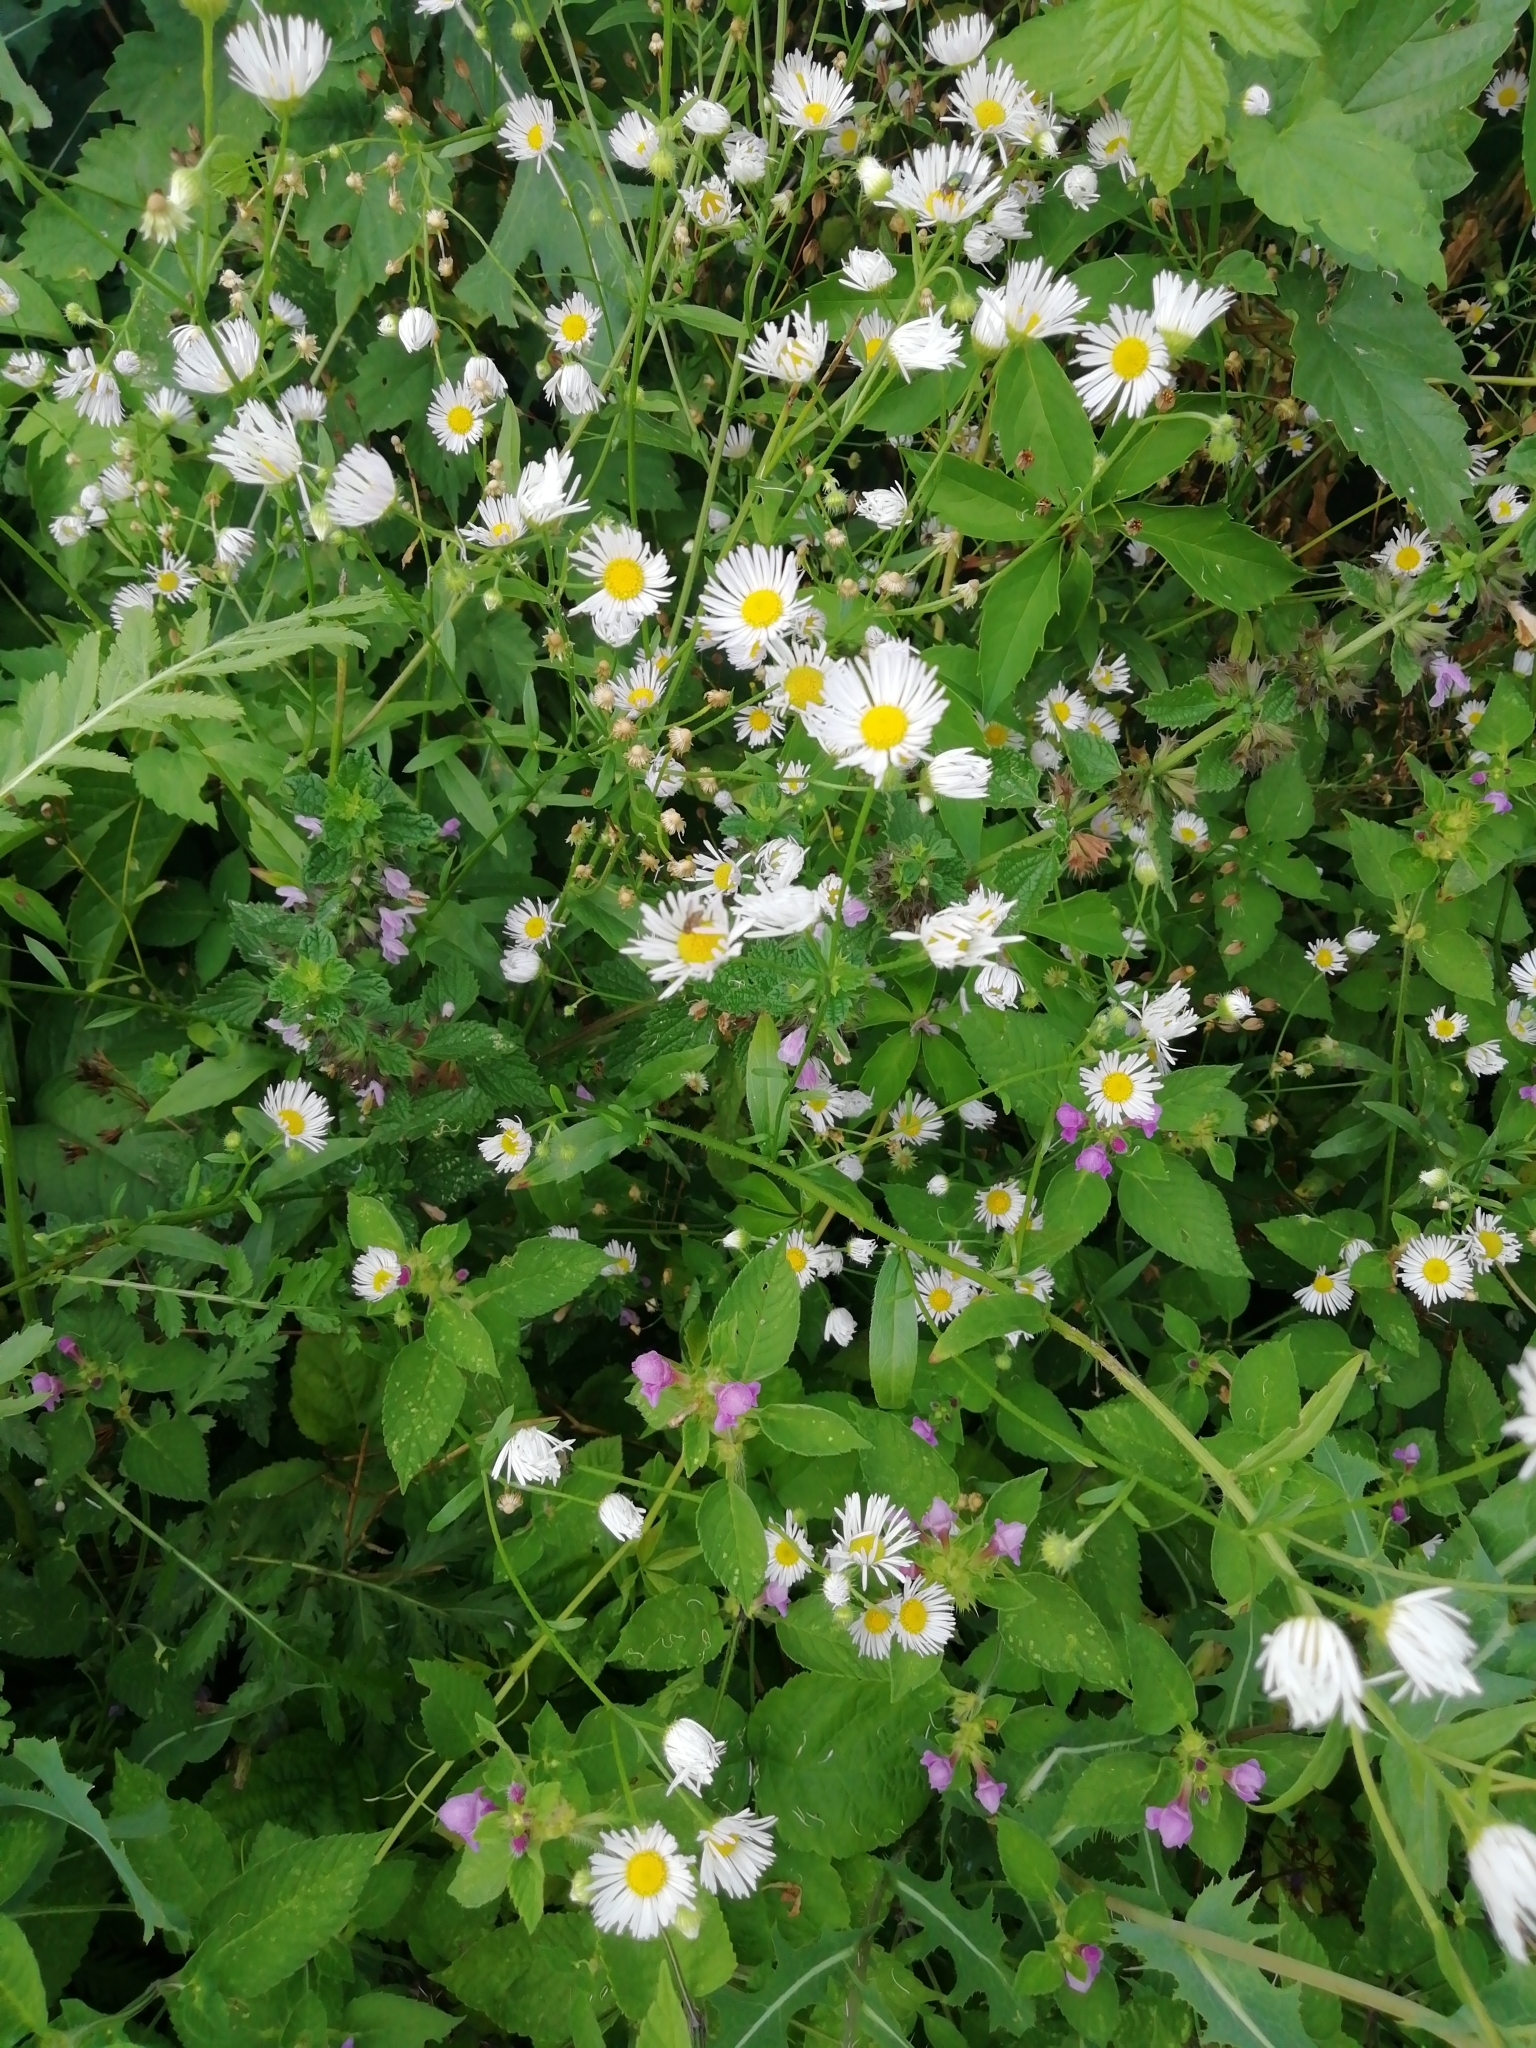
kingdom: Plantae
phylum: Tracheophyta
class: Magnoliopsida
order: Asterales
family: Asteraceae
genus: Erigeron
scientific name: Erigeron annuus
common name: Tall fleabane
